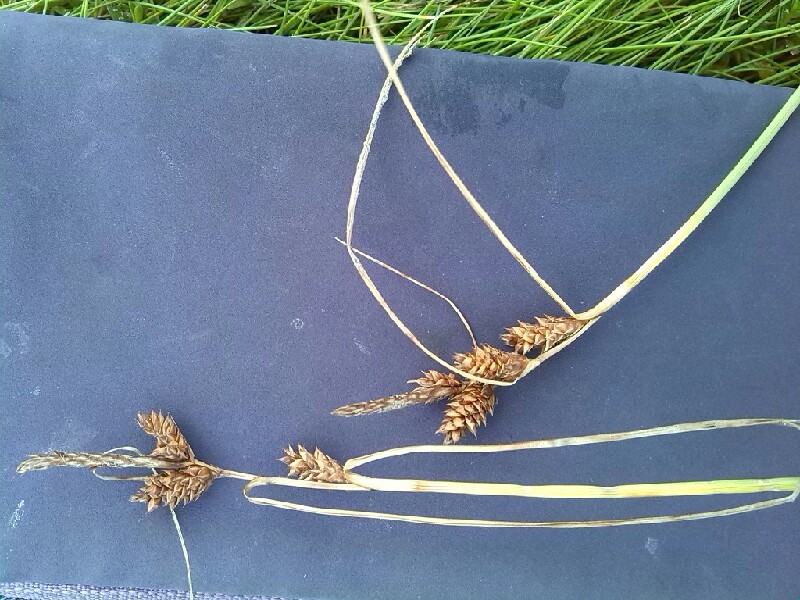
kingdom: Plantae
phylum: Tracheophyta
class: Liliopsida
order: Poales
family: Cyperaceae
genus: Carex
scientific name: Carex extensa
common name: Long-bracted sedge
